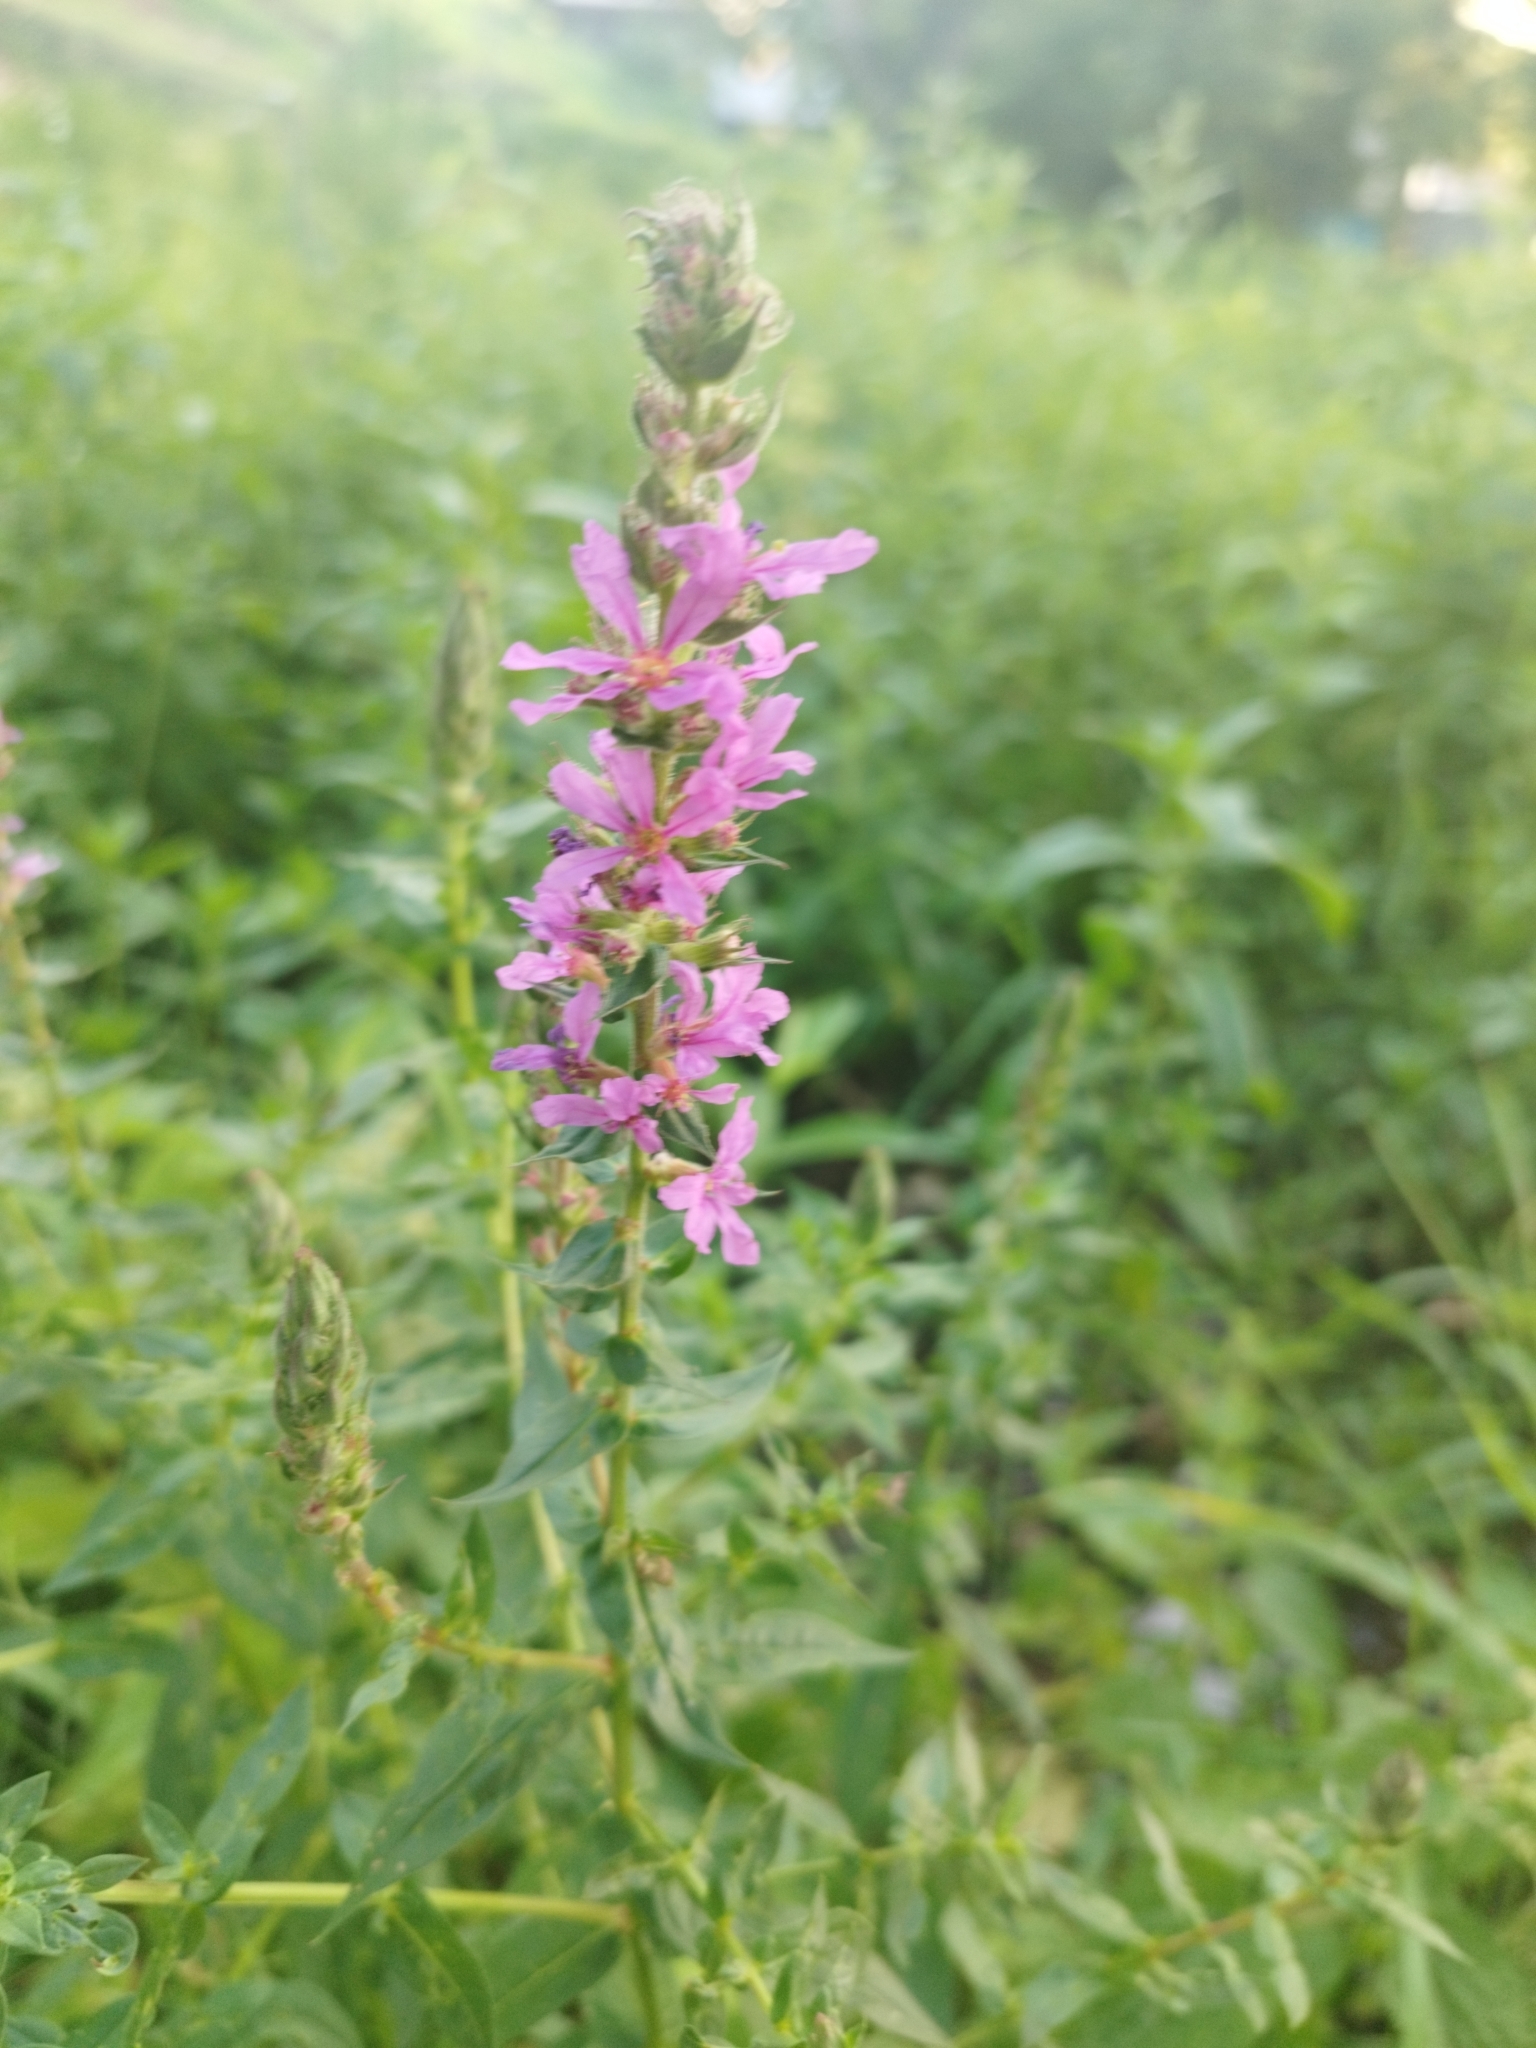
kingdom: Plantae
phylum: Tracheophyta
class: Magnoliopsida
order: Myrtales
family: Lythraceae
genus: Lythrum
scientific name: Lythrum salicaria
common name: Purple loosestrife
